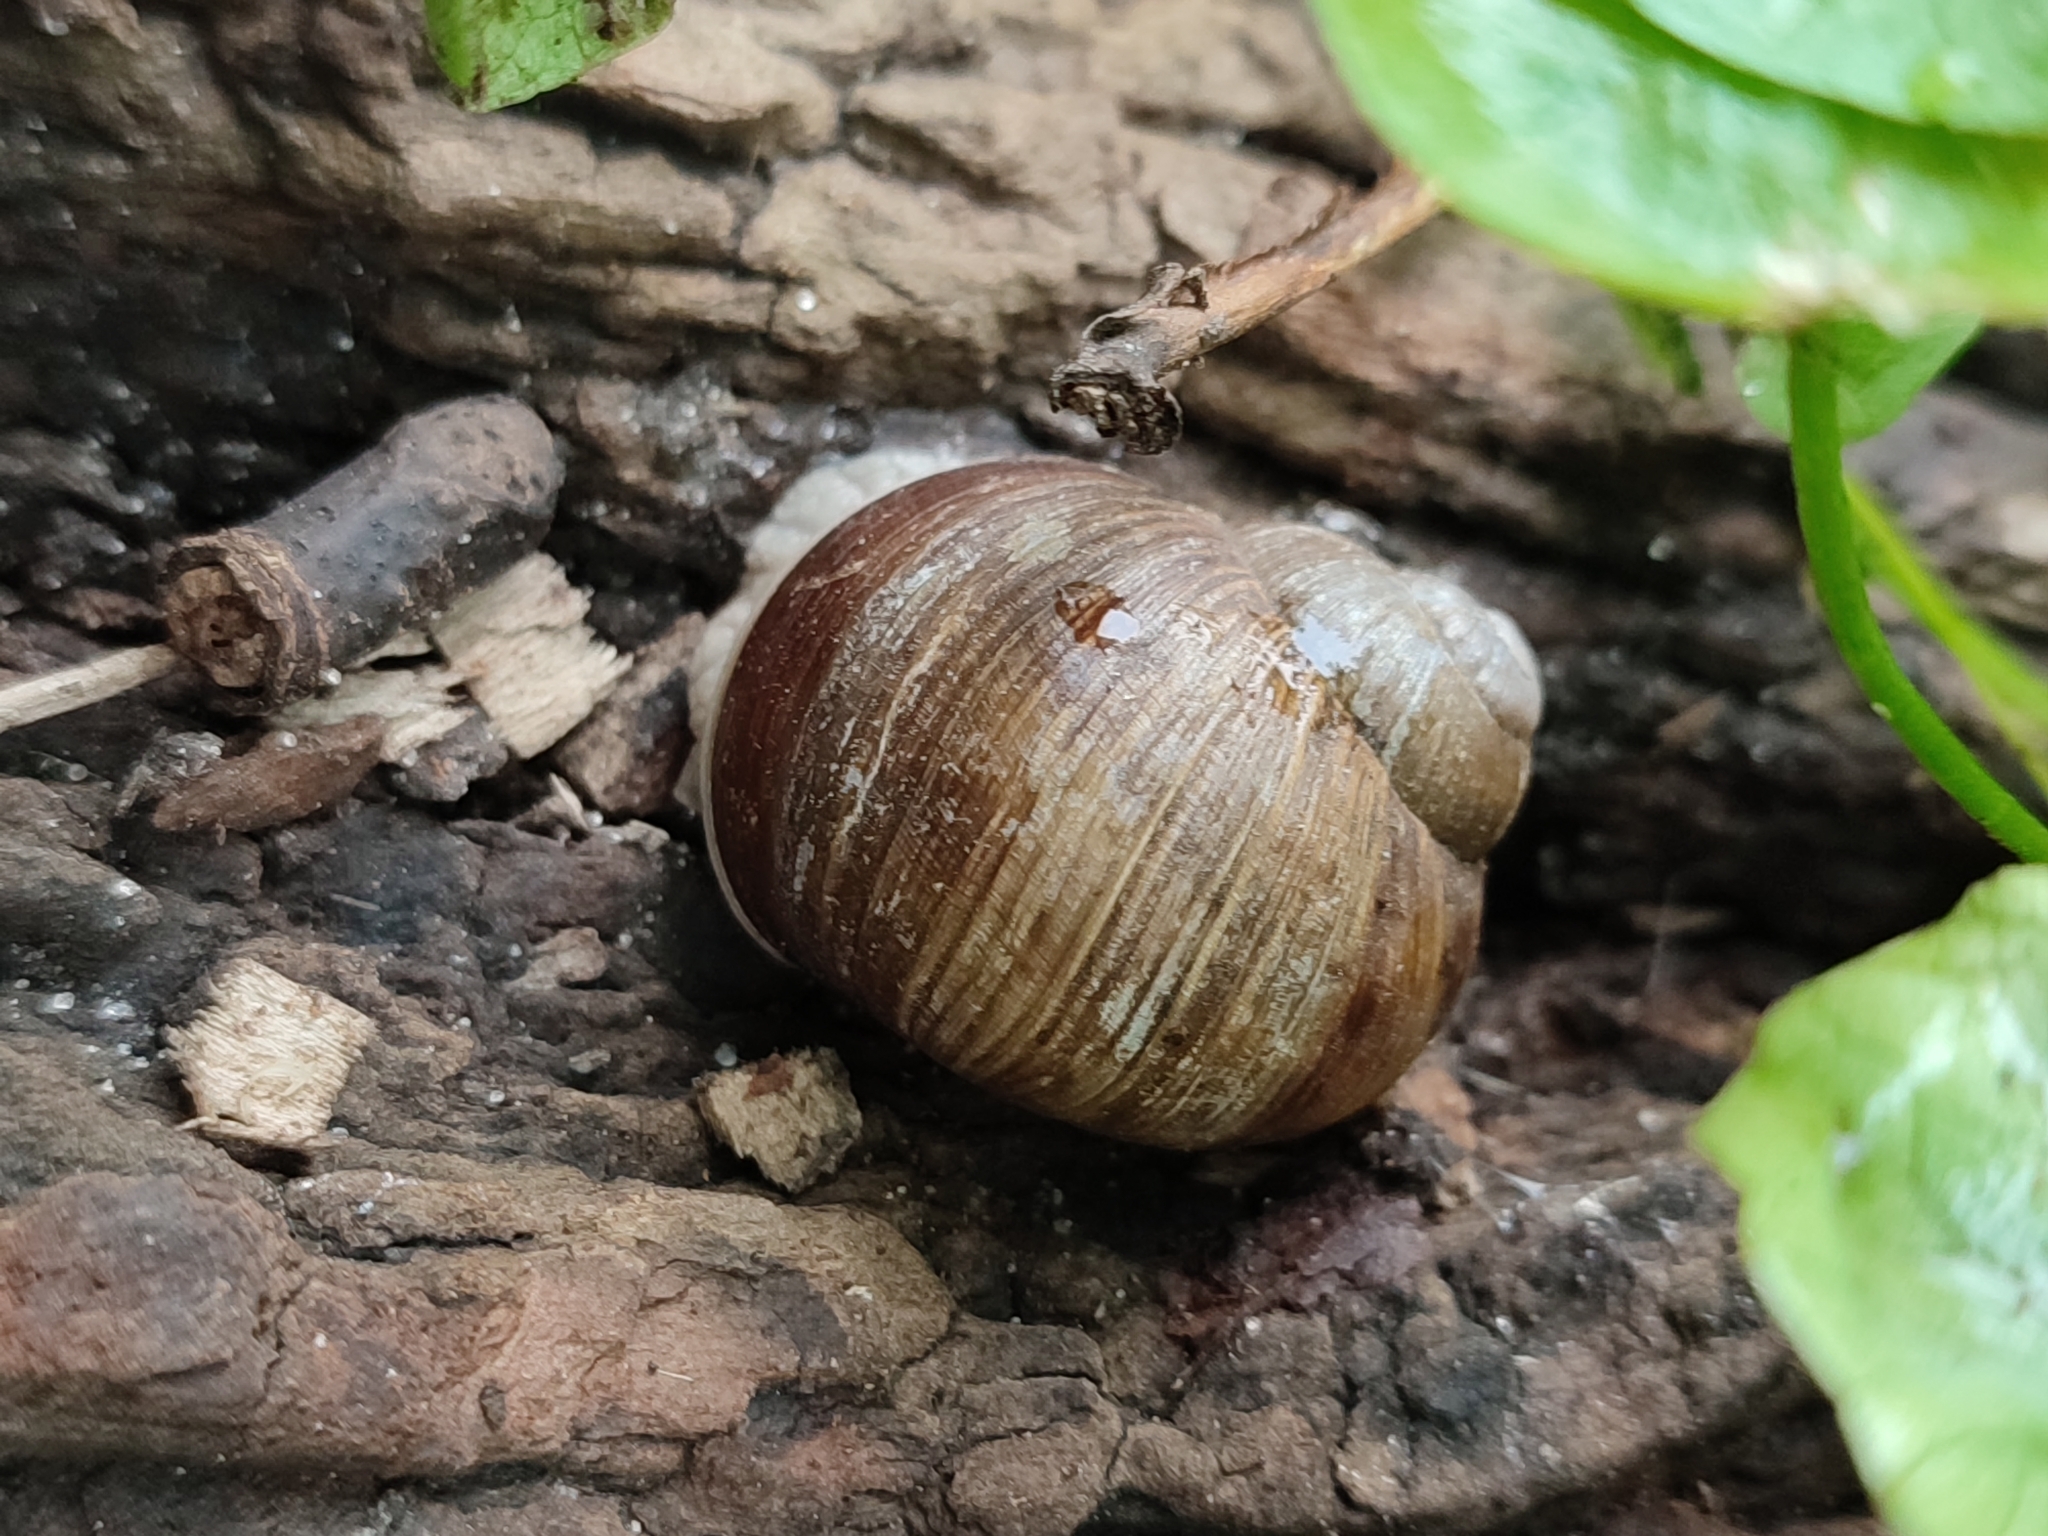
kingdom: Animalia
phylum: Mollusca
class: Gastropoda
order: Stylommatophora
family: Helicidae
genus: Helix
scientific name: Helix pomatia
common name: Roman snail
